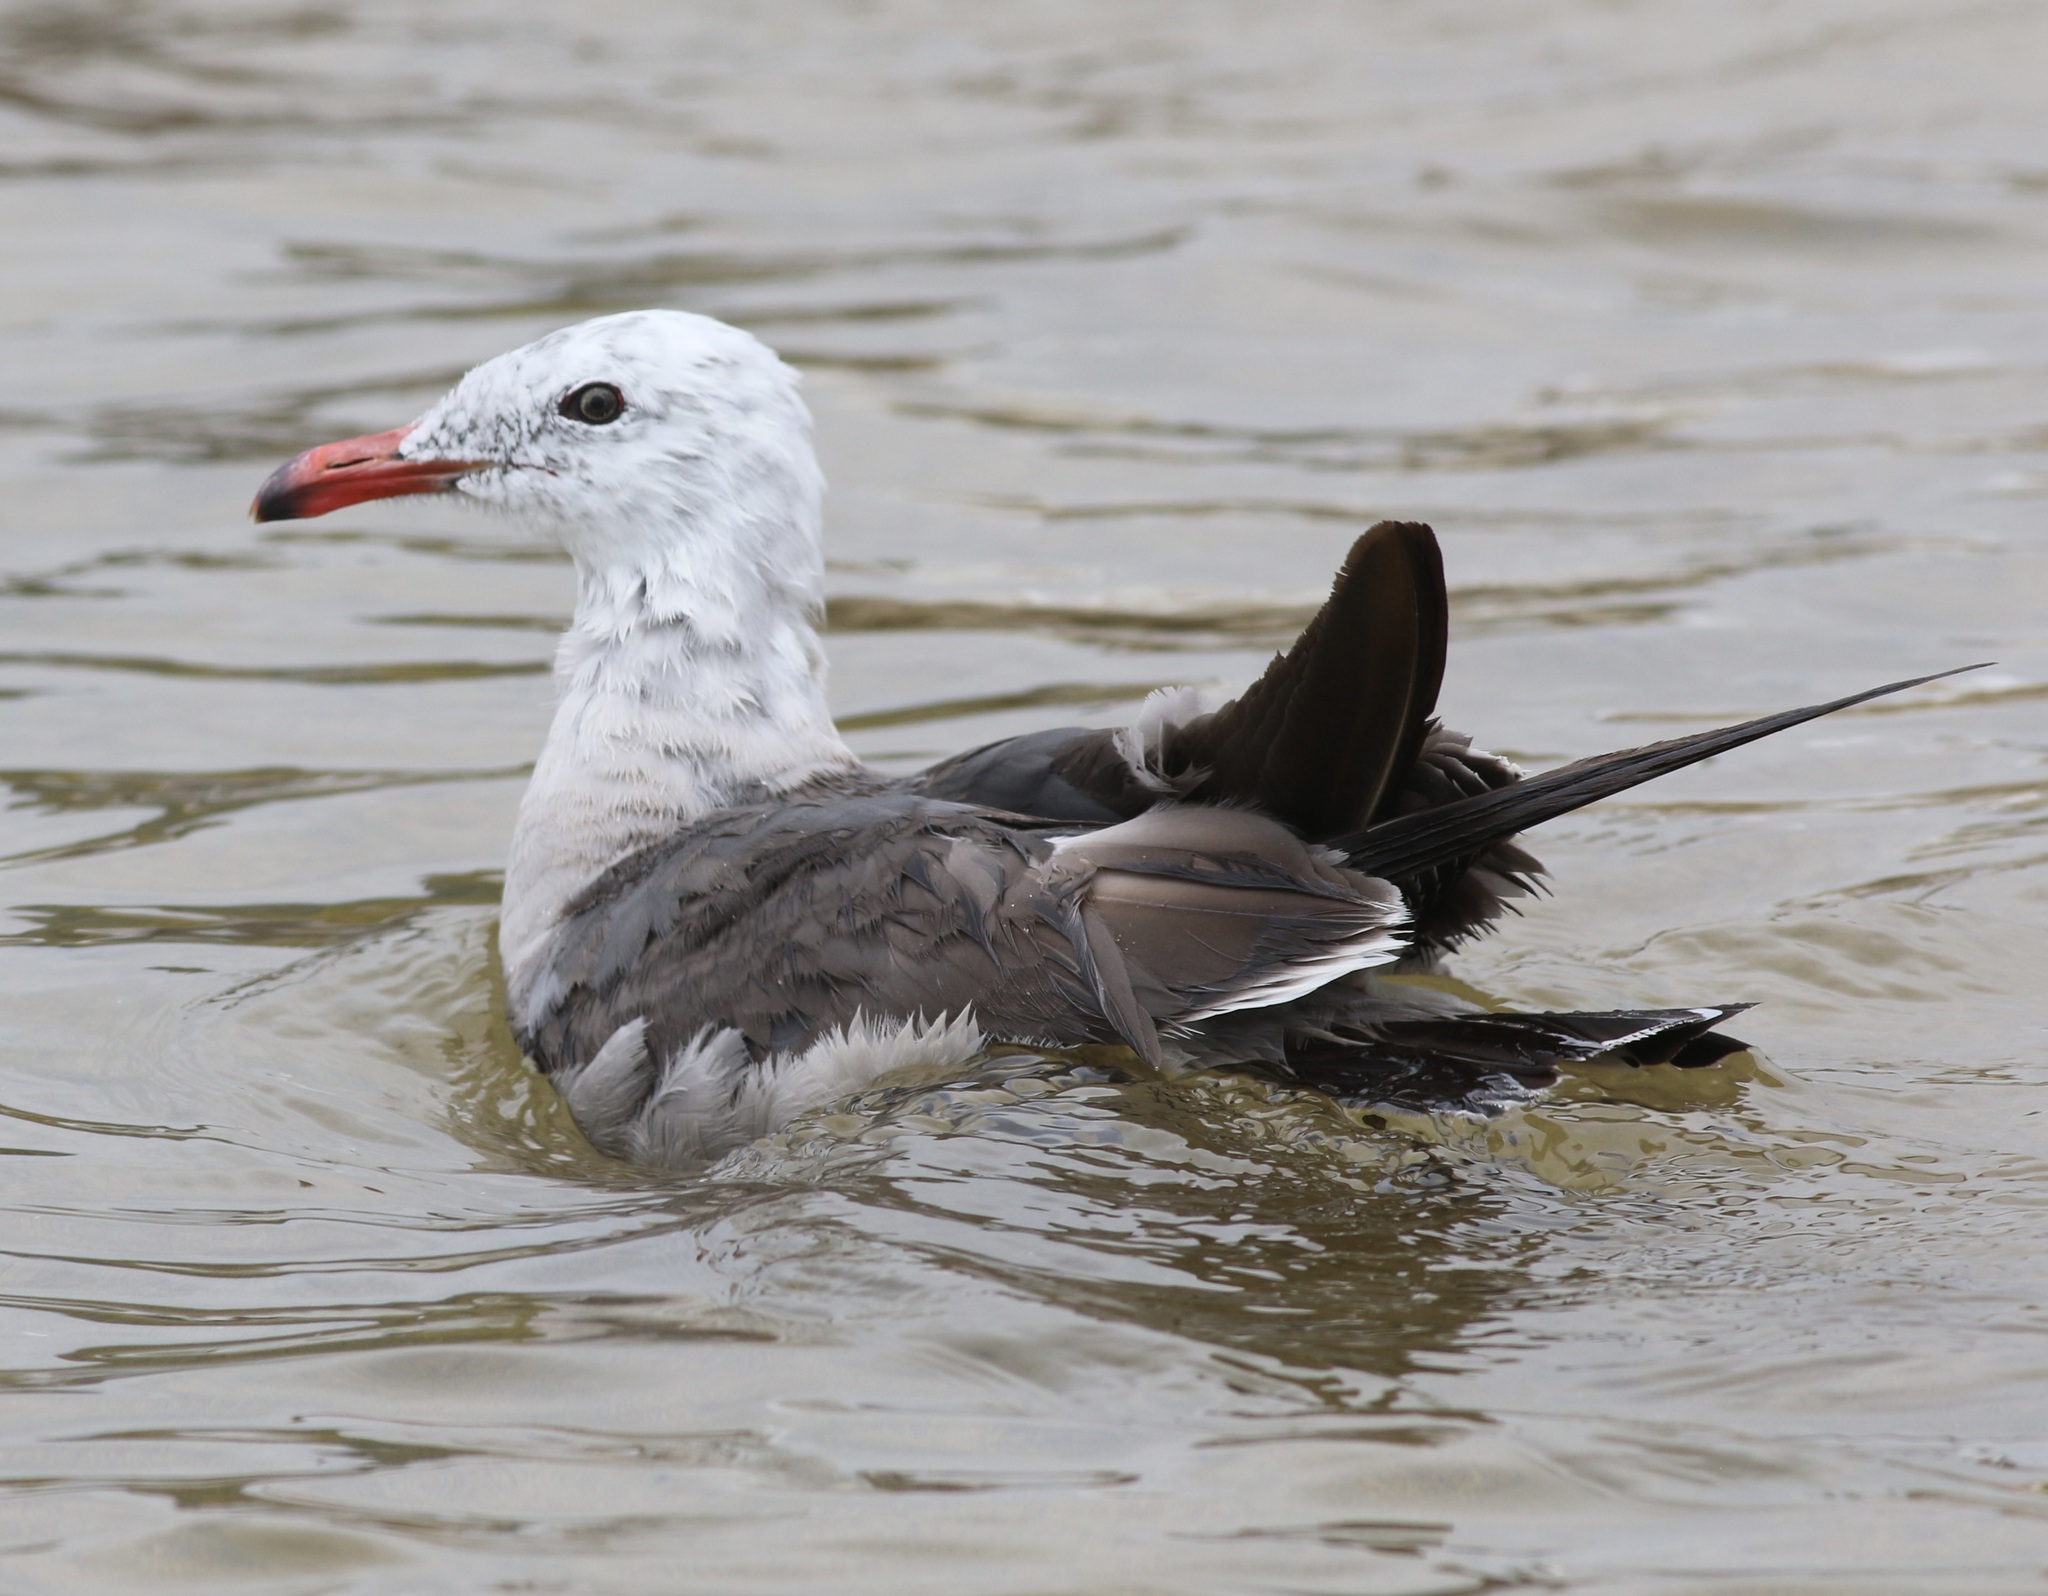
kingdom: Animalia
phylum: Chordata
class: Aves
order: Charadriiformes
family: Laridae
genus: Larus
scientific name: Larus heermanni
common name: Heermann's gull
